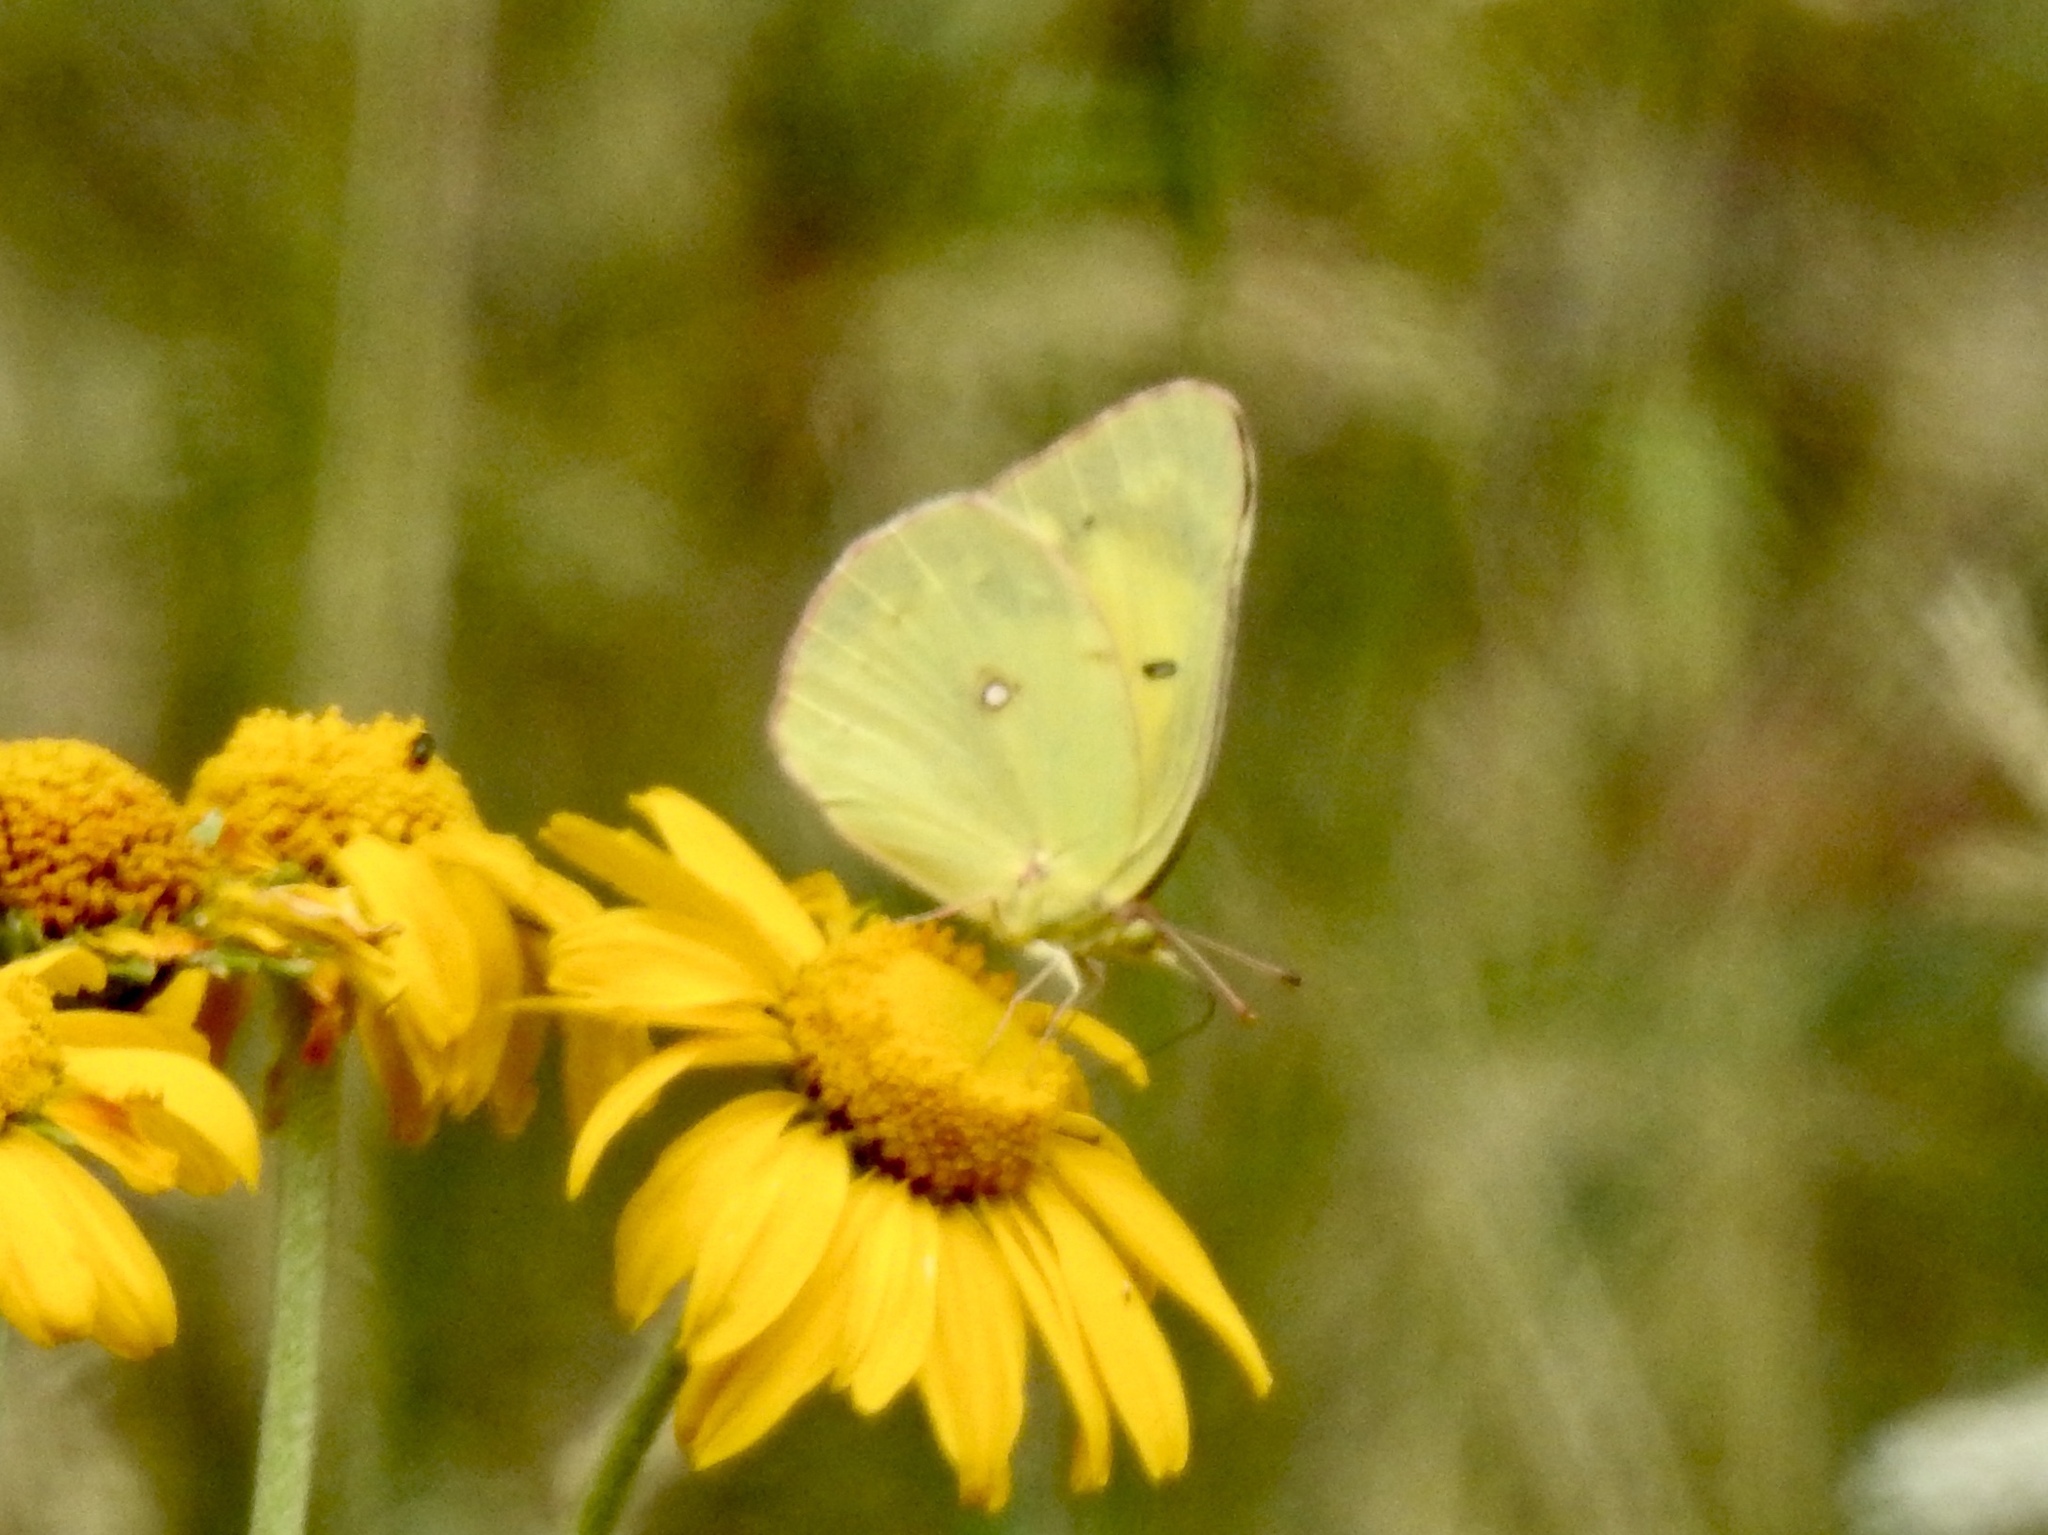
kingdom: Animalia
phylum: Arthropoda
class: Insecta
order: Lepidoptera
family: Pieridae
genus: Colias
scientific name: Colias eurytheme
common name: Alfalfa butterfly
